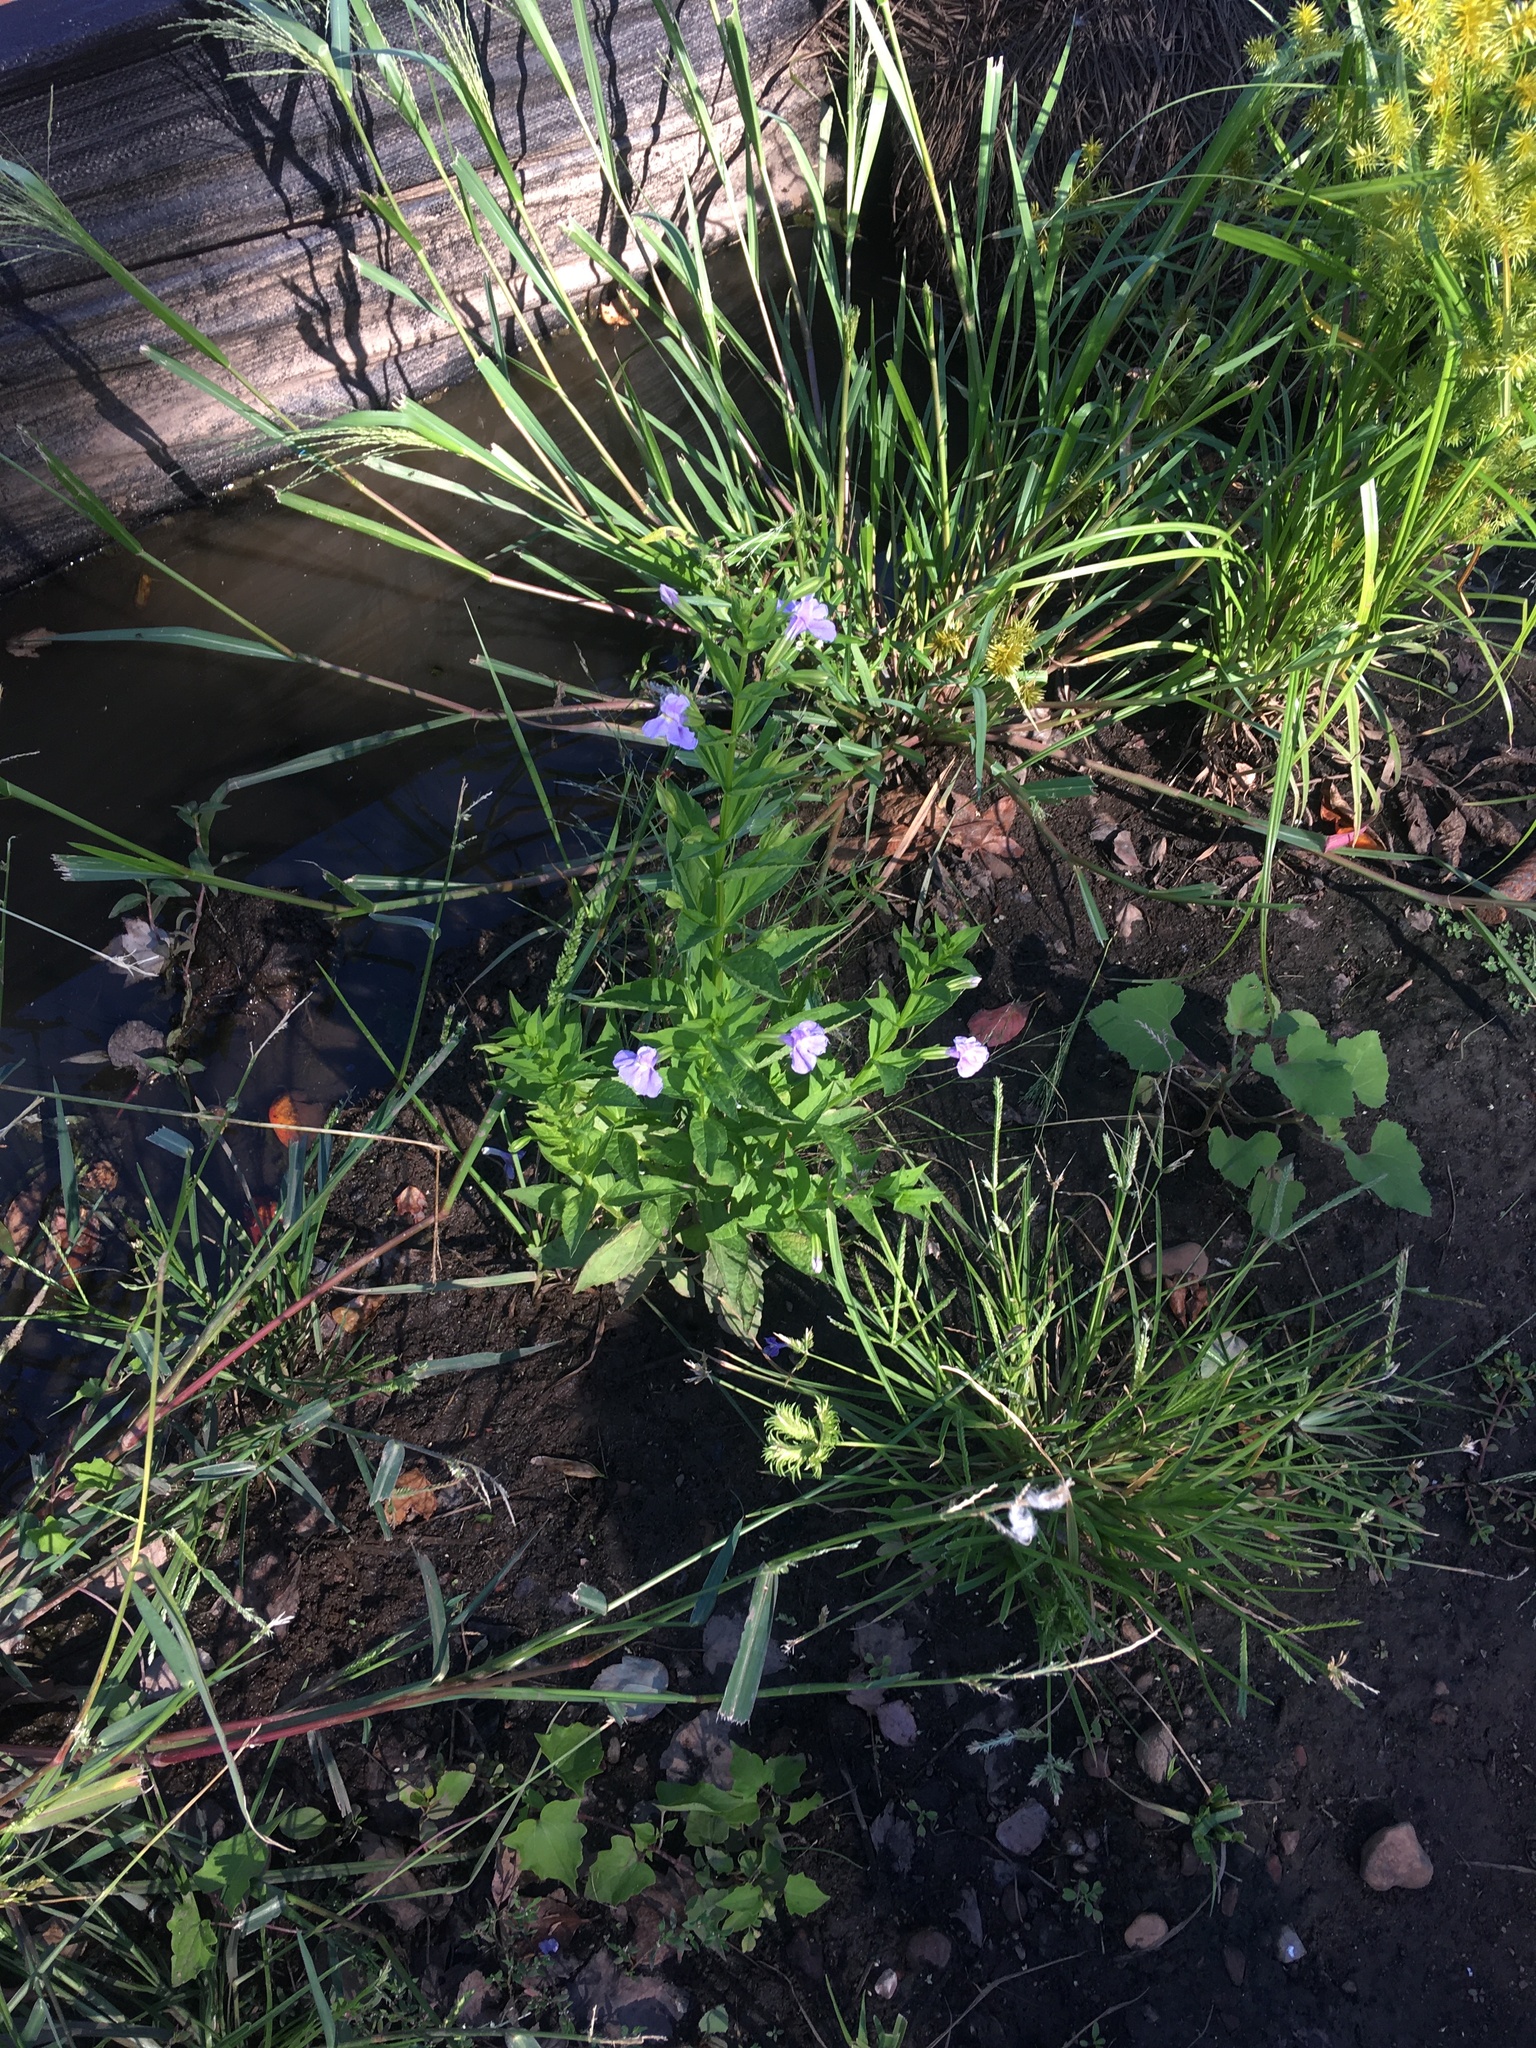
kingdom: Plantae
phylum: Tracheophyta
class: Magnoliopsida
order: Lamiales
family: Phrymaceae
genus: Mimulus
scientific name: Mimulus ringens
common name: Allegheny monkeyflower
